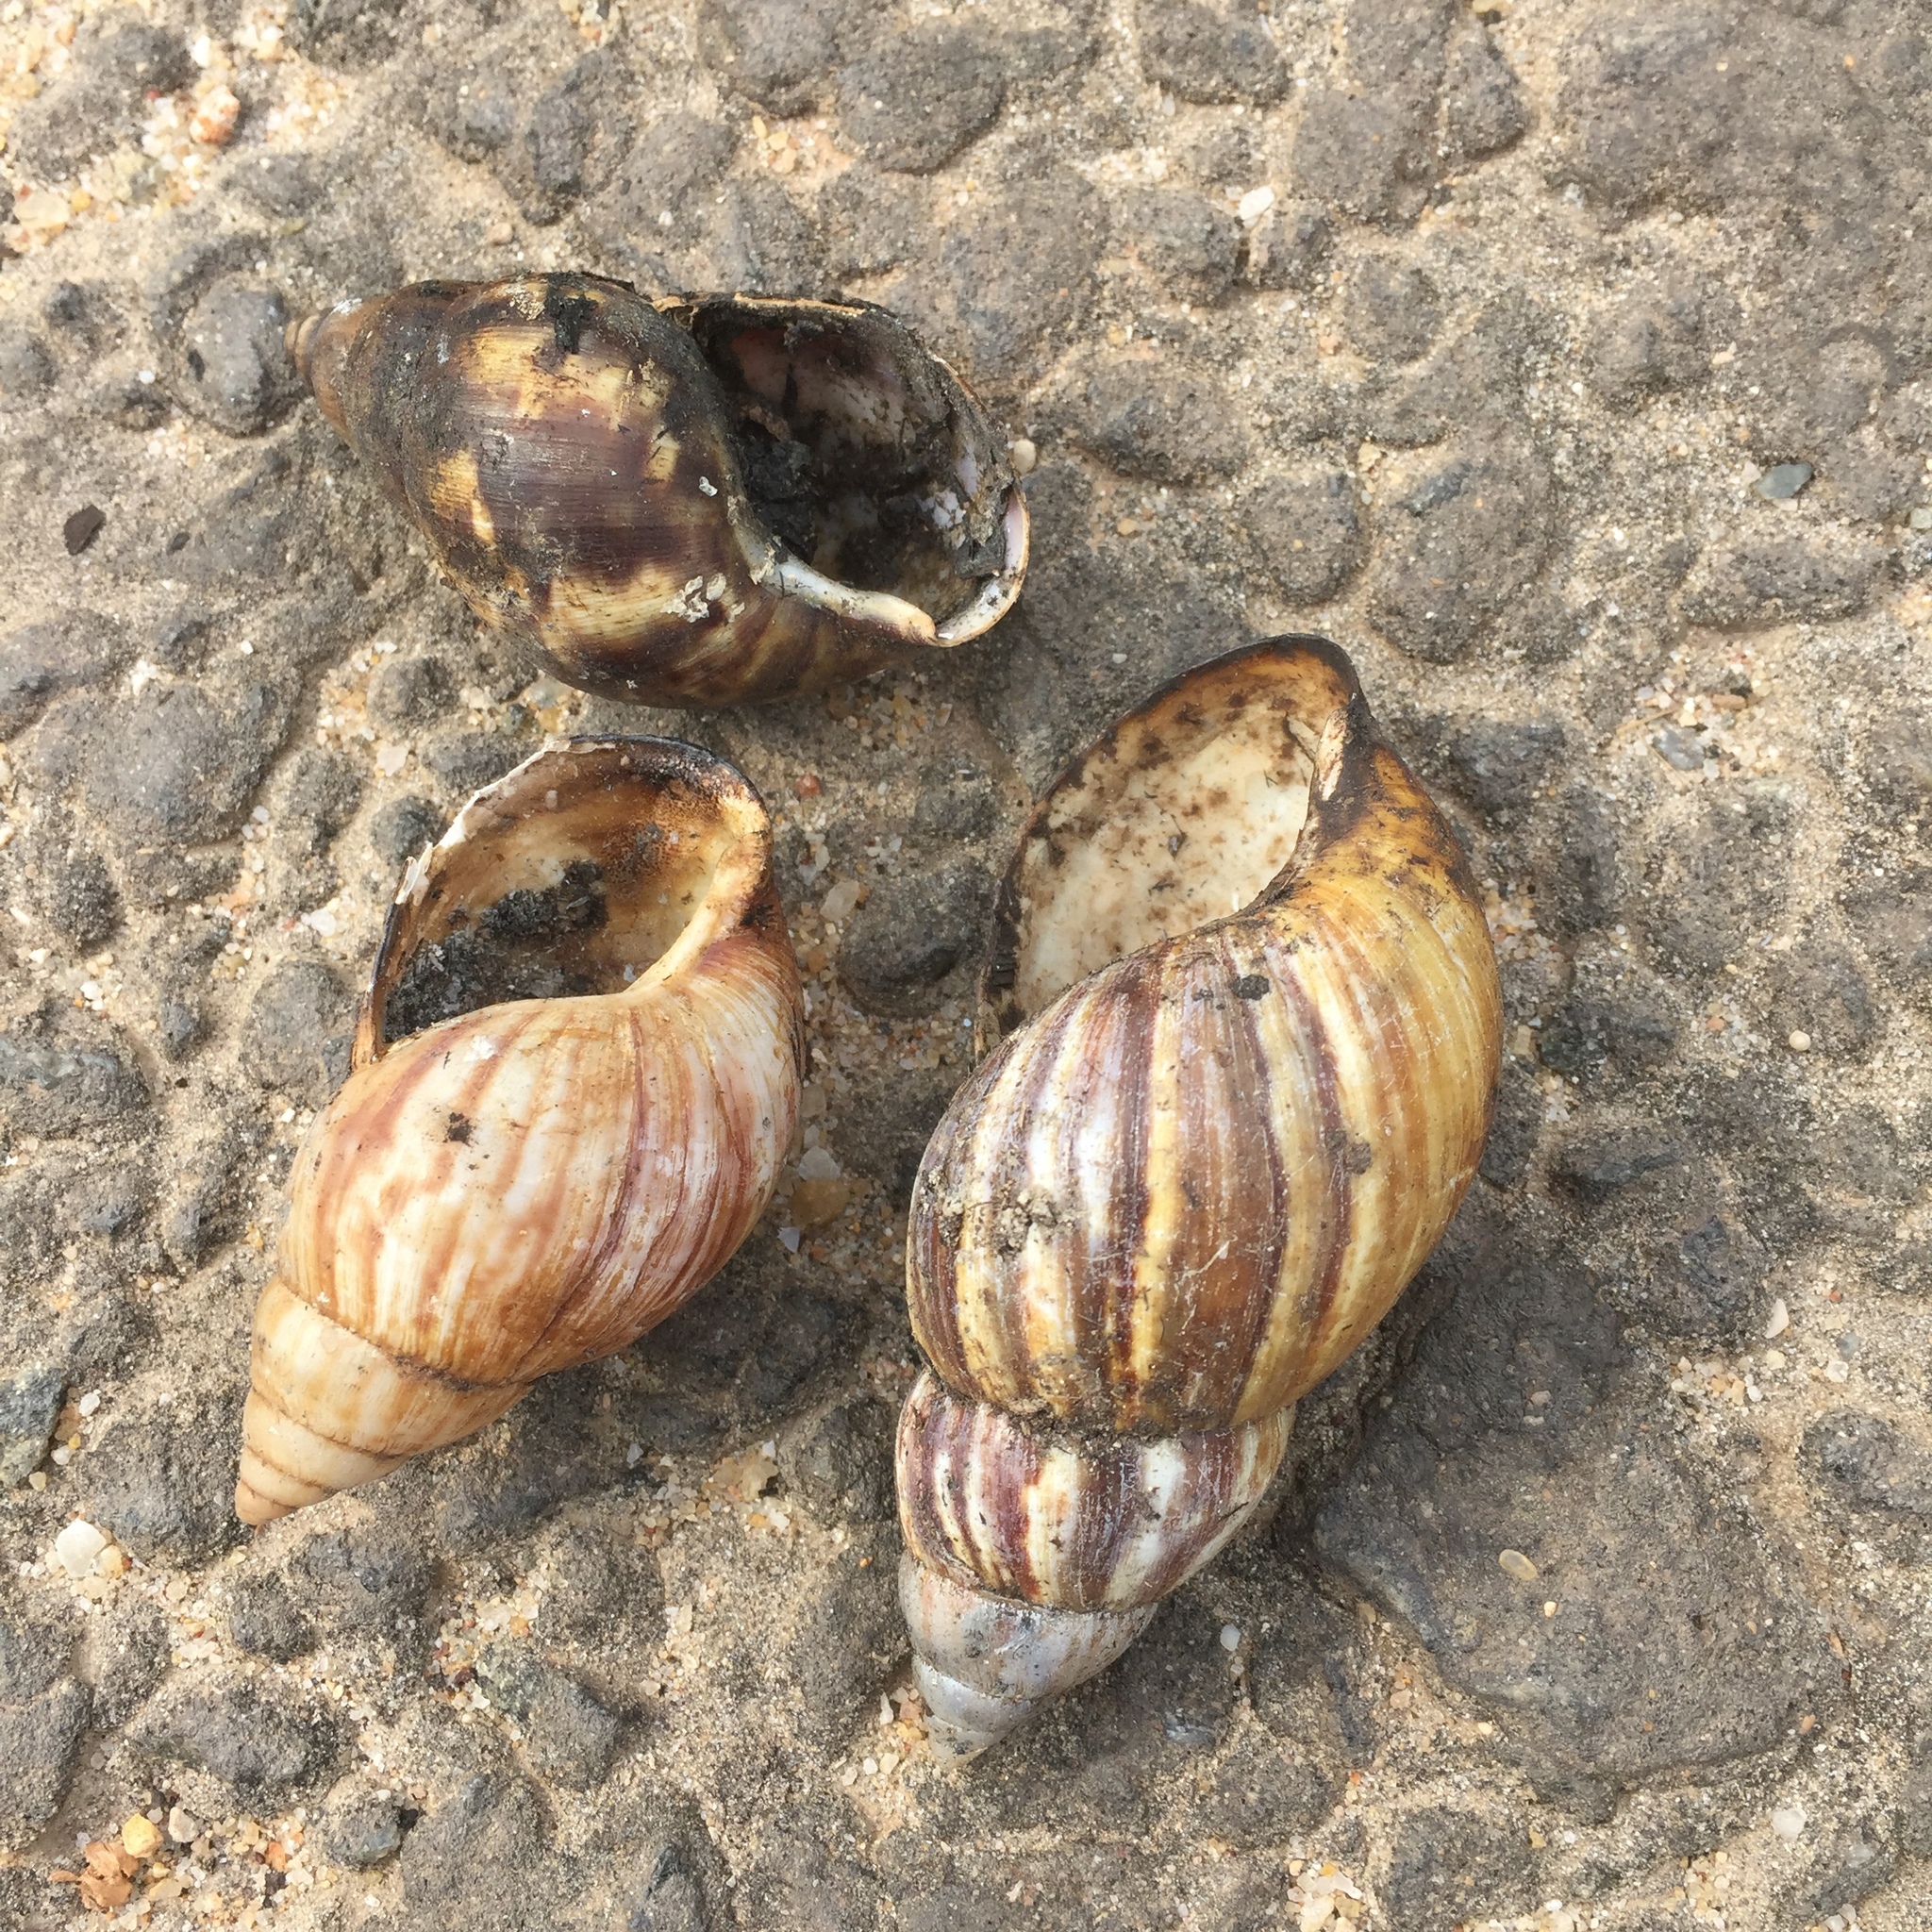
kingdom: Animalia
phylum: Mollusca
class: Gastropoda
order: Stylommatophora
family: Achatinidae
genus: Lissachatina
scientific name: Lissachatina fulica
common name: Giant african snail
